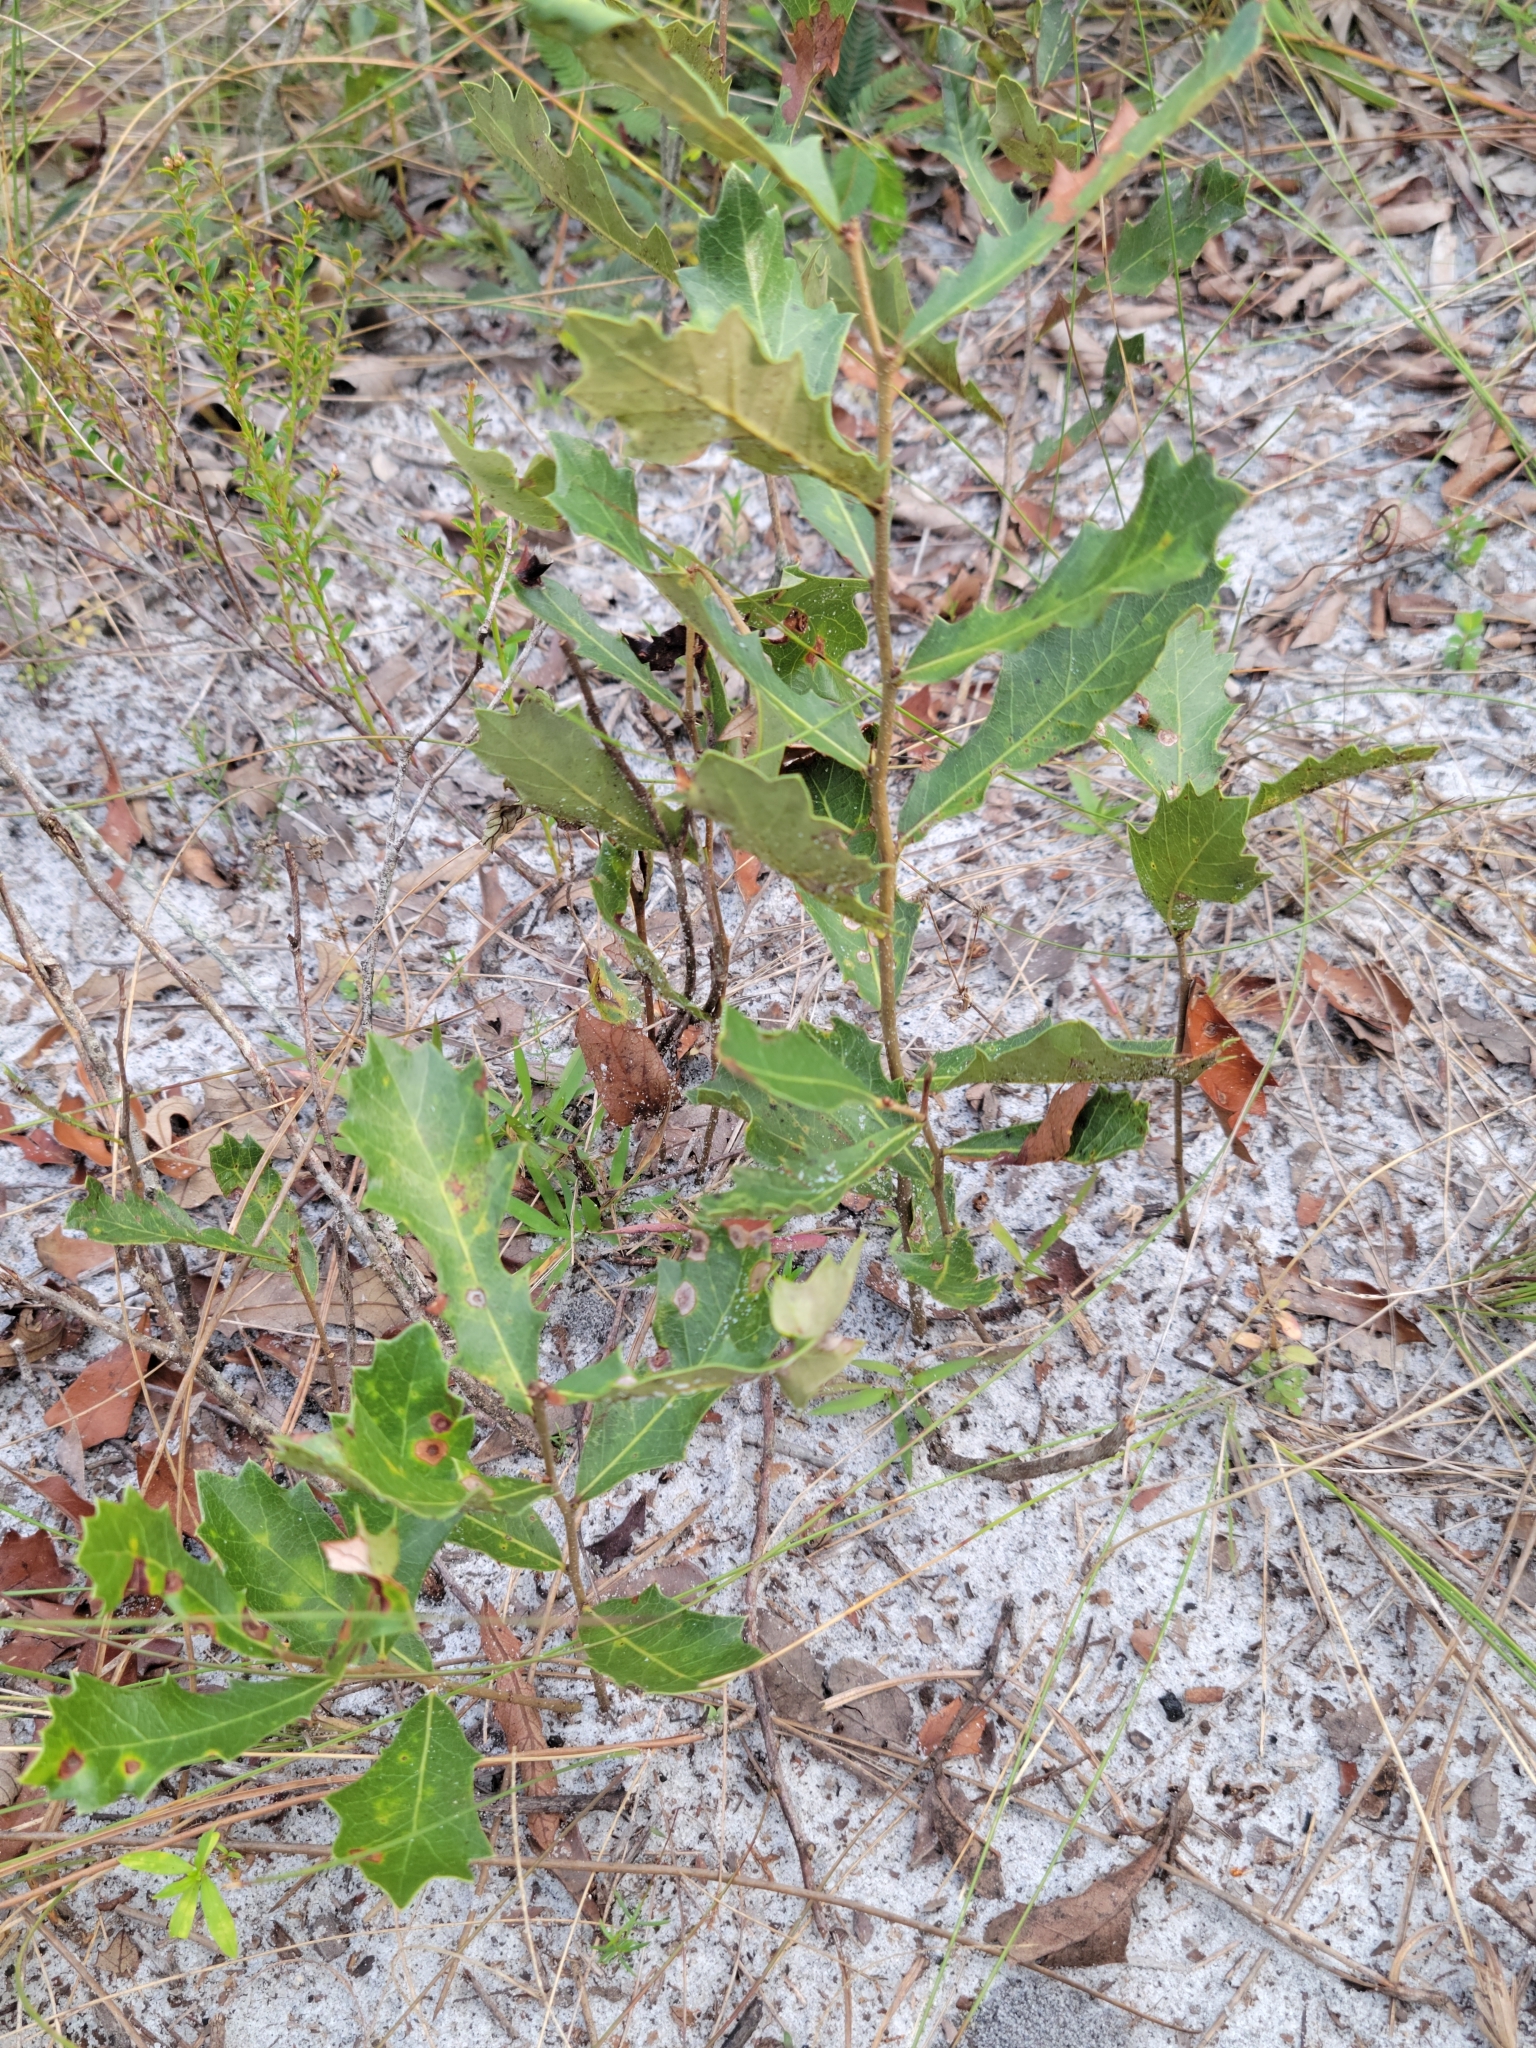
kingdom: Plantae
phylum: Tracheophyta
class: Magnoliopsida
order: Fagales
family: Fagaceae
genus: Quercus
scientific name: Quercus minima
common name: Dwarf live oak
